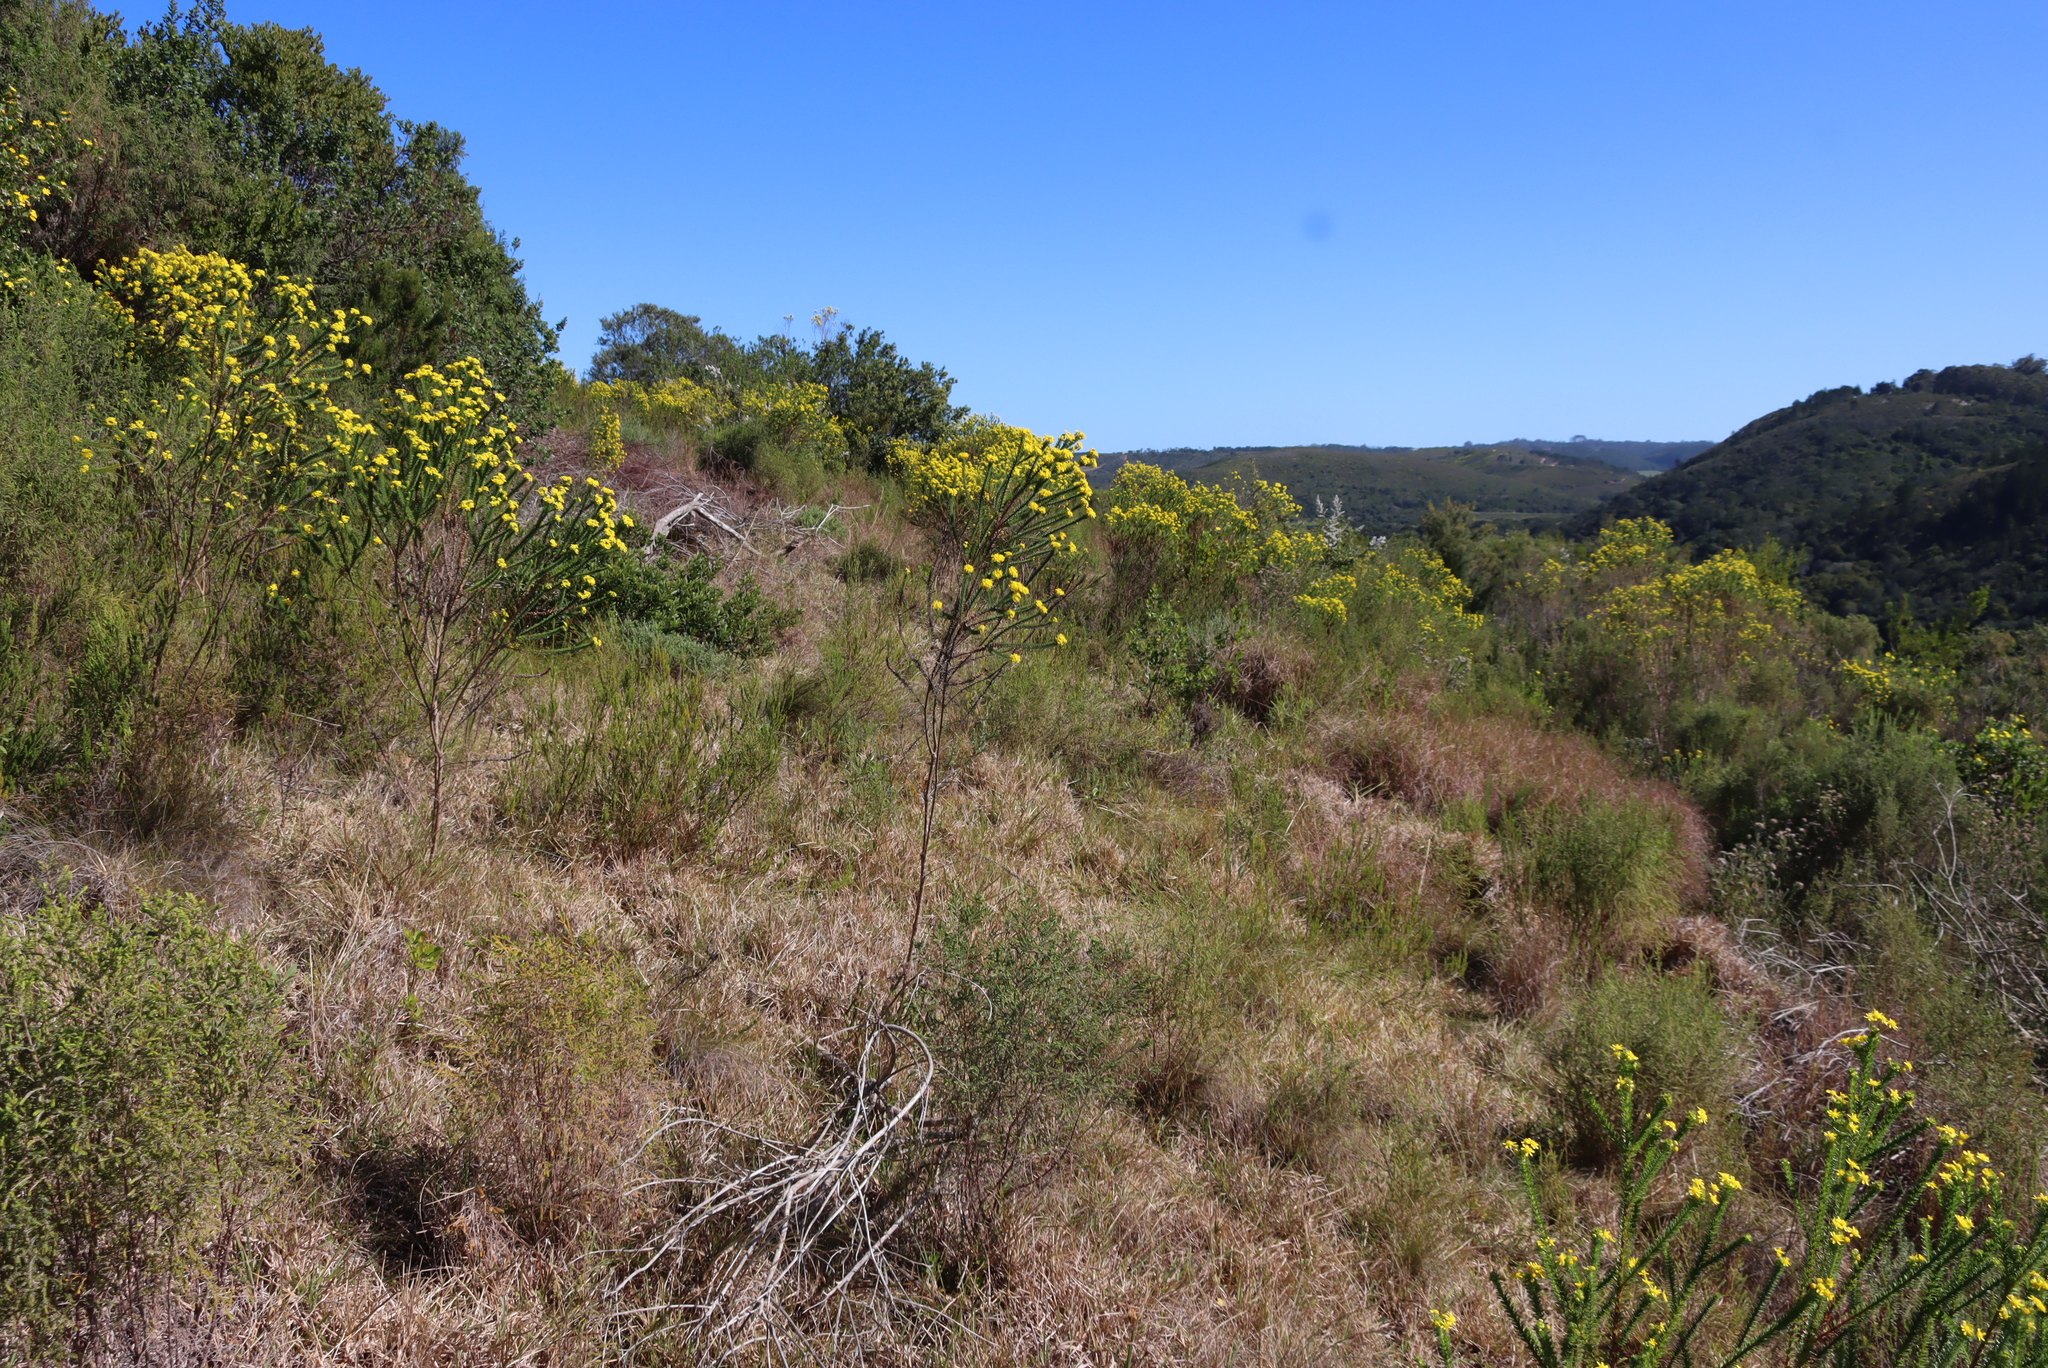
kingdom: Plantae
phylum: Tracheophyta
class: Magnoliopsida
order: Asterales
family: Asteraceae
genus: Euryops
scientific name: Euryops virgineus
